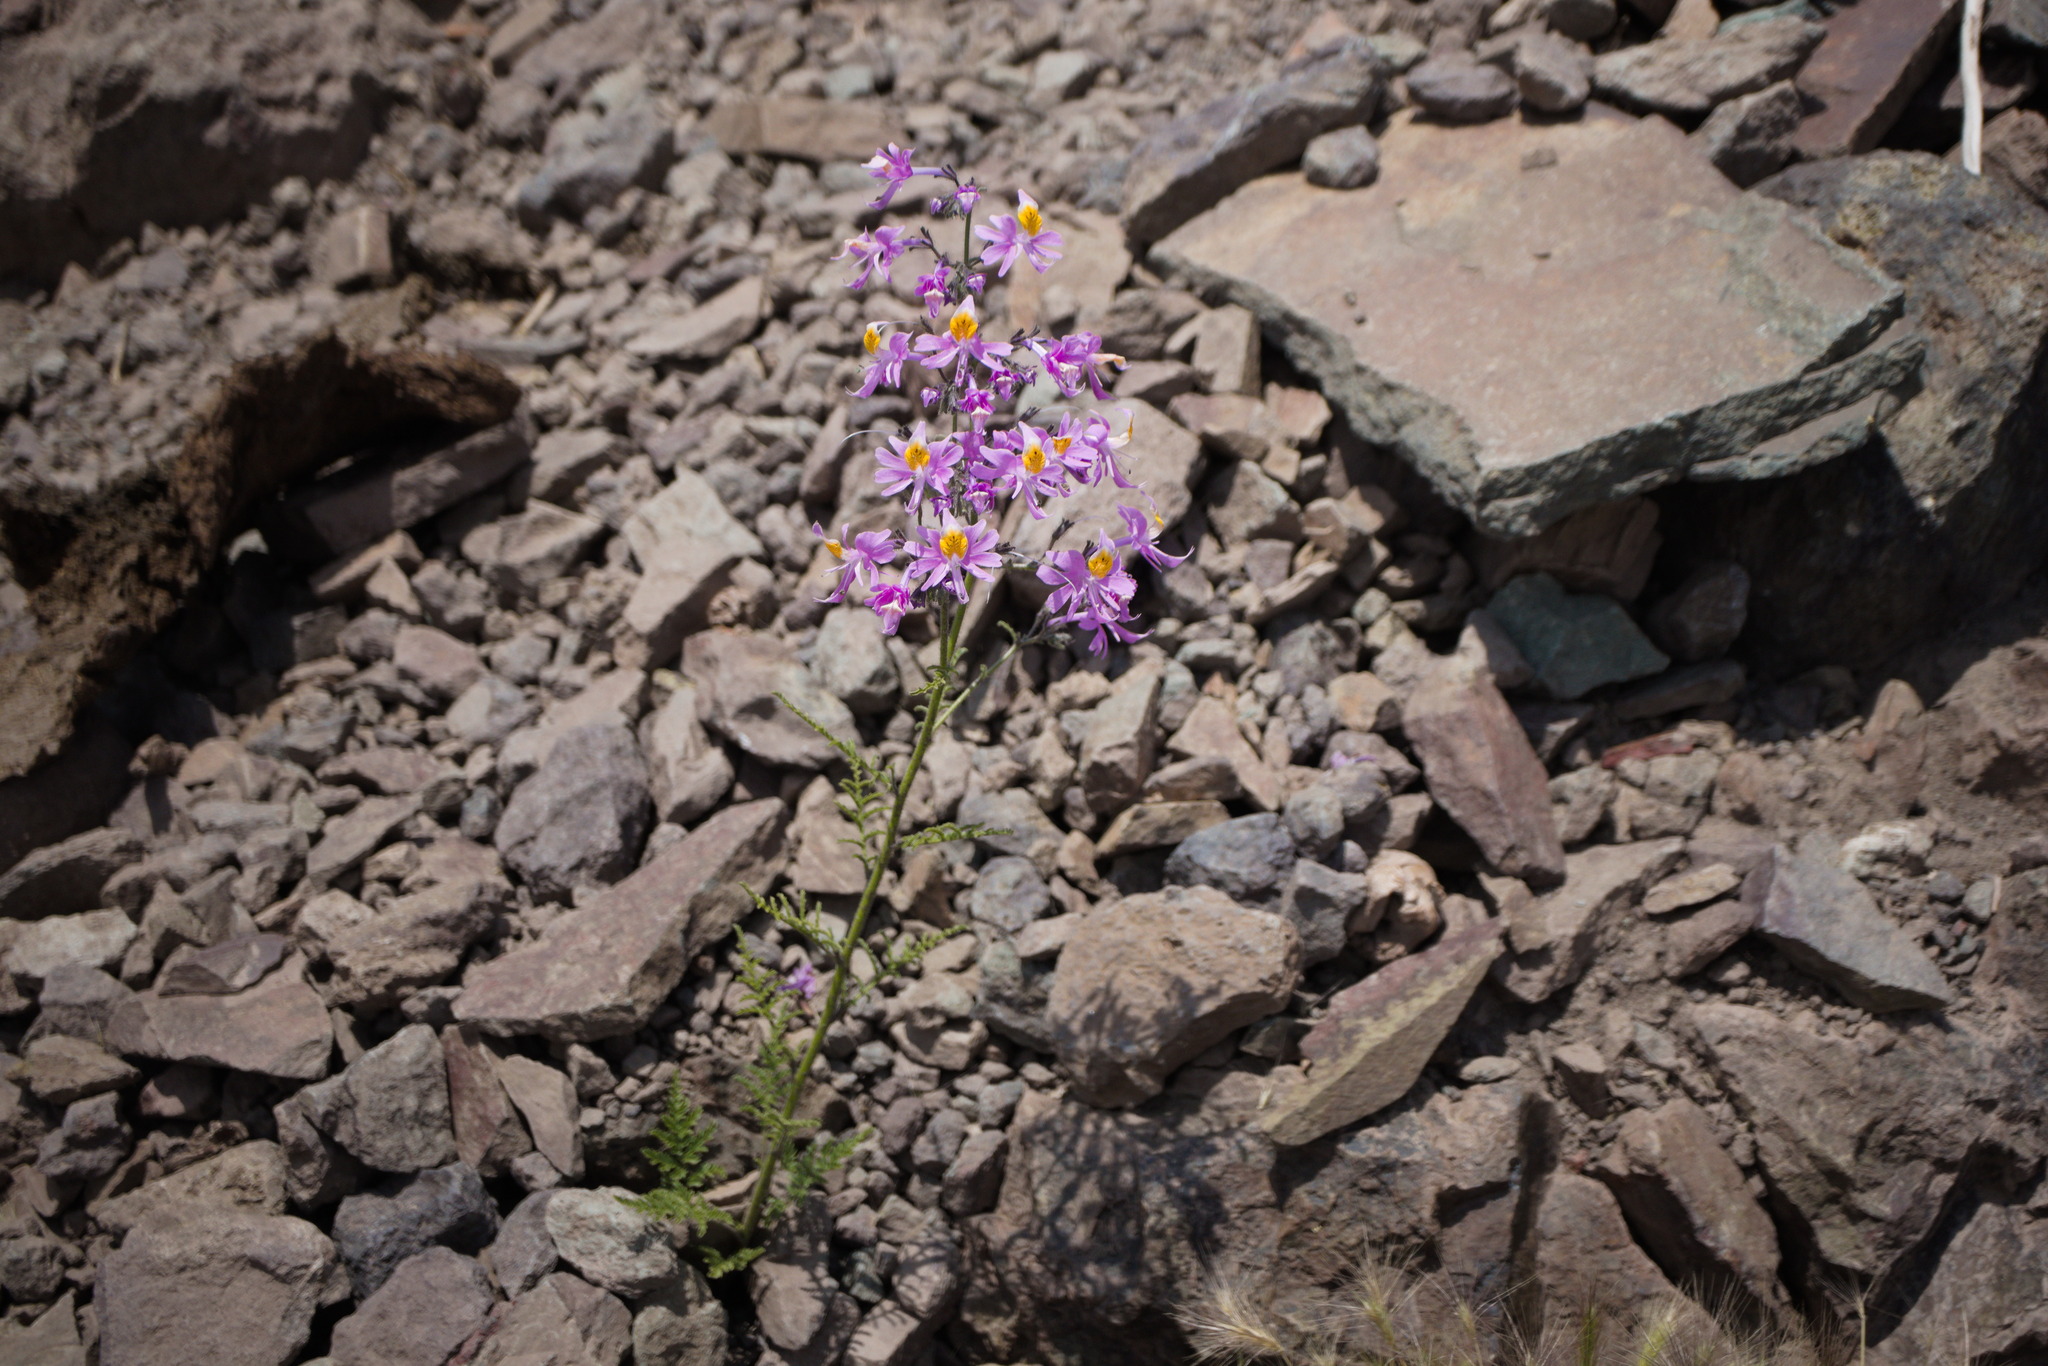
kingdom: Plantae
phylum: Tracheophyta
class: Magnoliopsida
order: Solanales
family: Solanaceae
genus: Schizanthus
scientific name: Schizanthus hookeri
